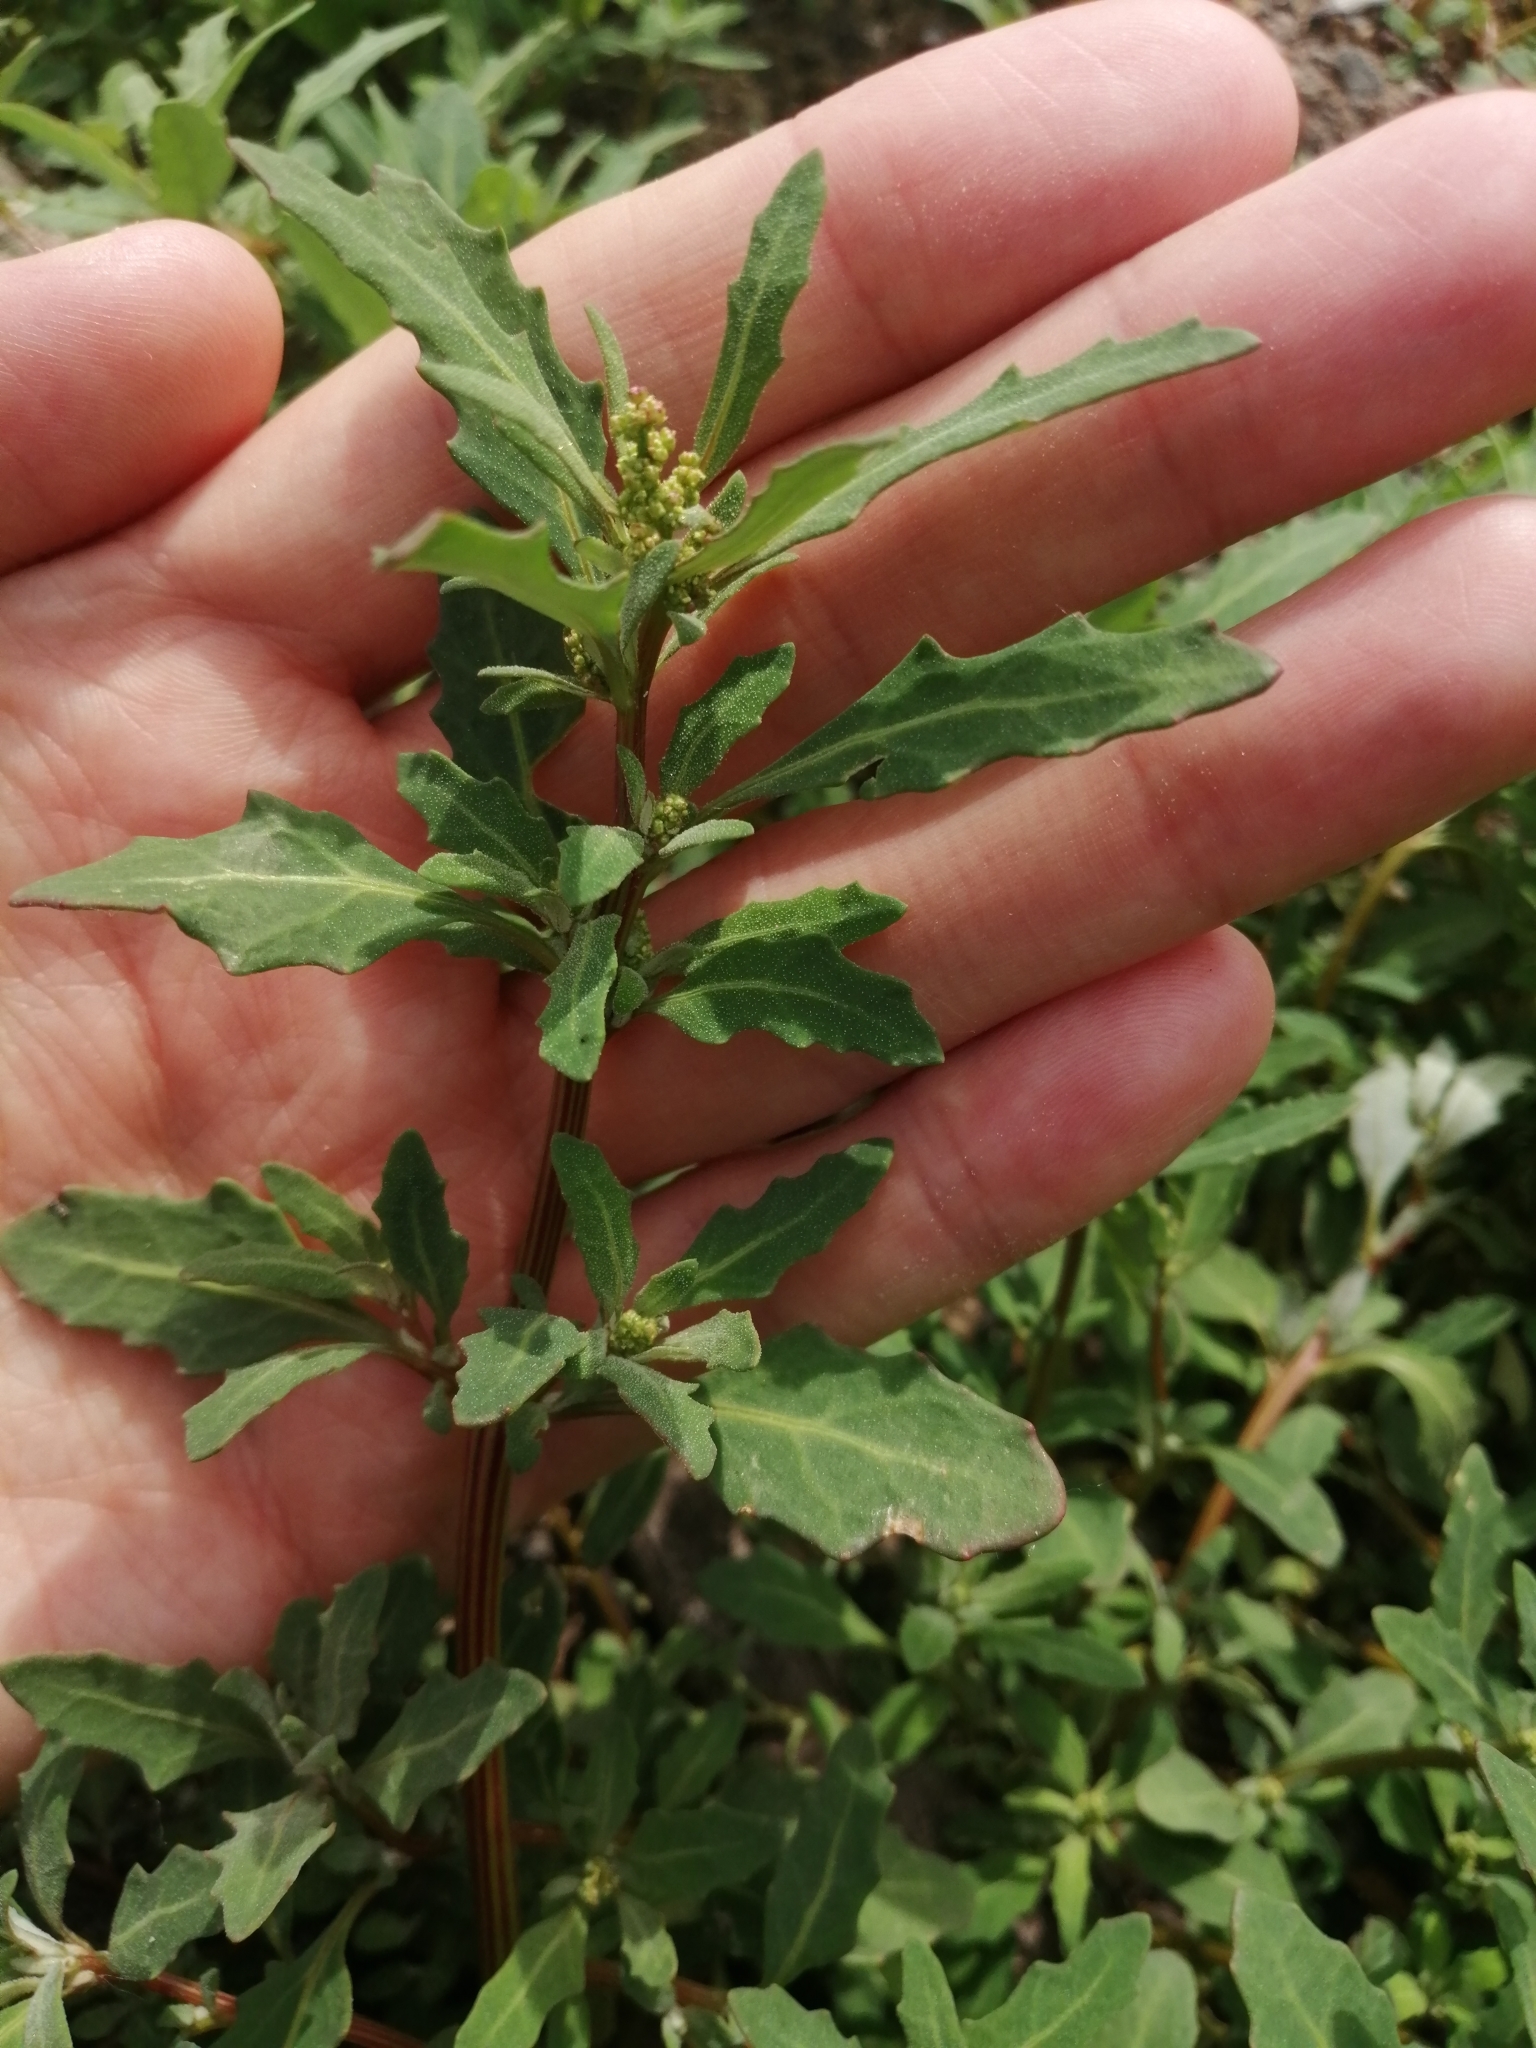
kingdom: Plantae
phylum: Tracheophyta
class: Magnoliopsida
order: Caryophyllales
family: Amaranthaceae
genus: Oxybasis
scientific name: Oxybasis glauca
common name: Glaucous goosefoot
